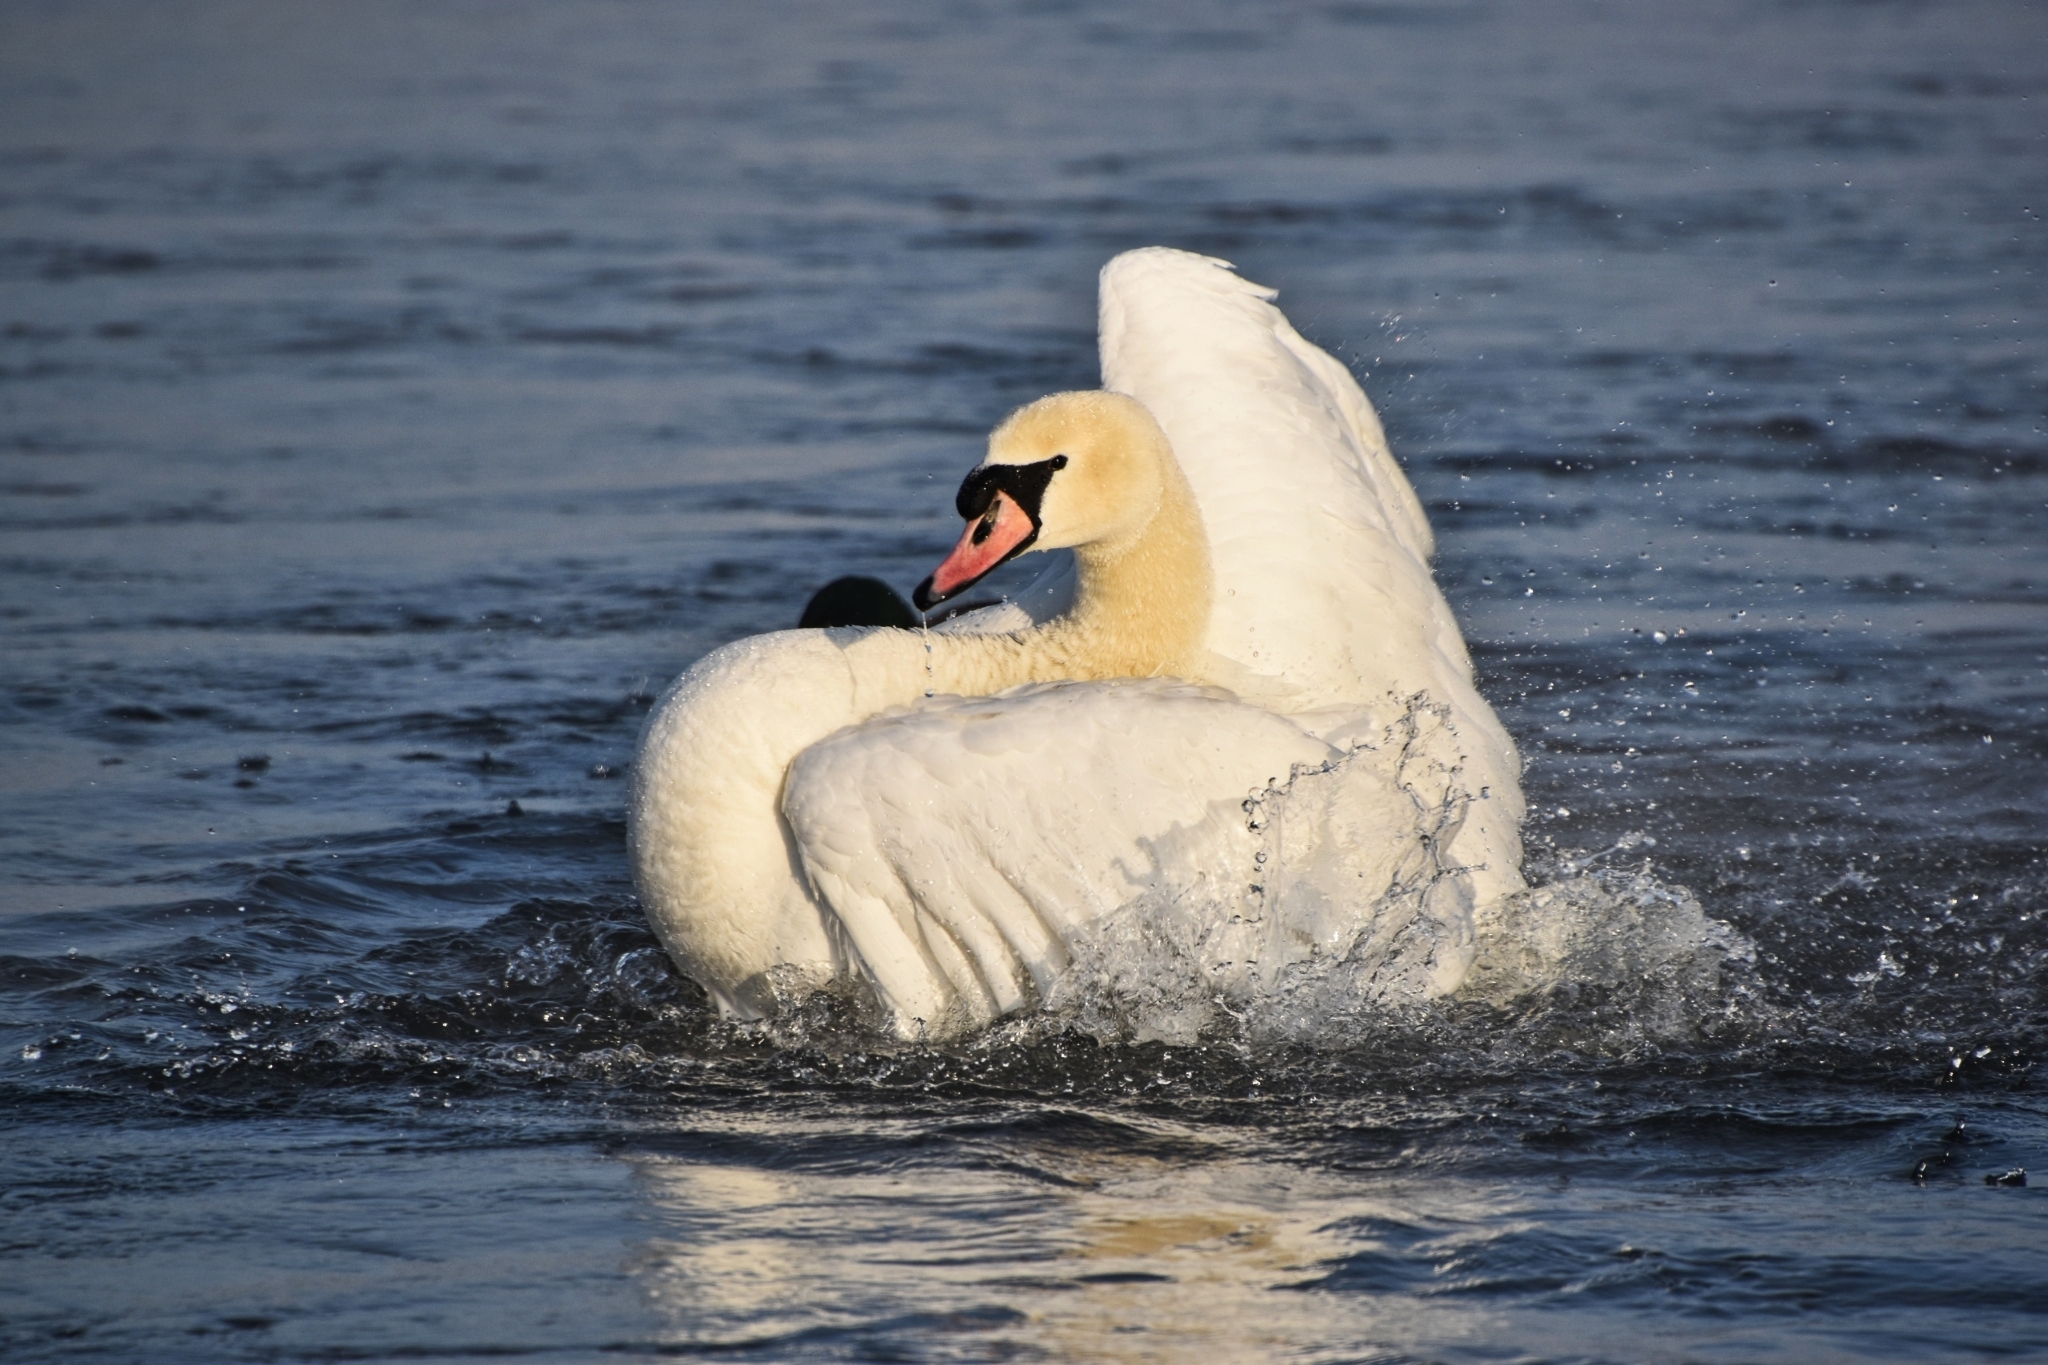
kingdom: Animalia
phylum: Chordata
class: Aves
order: Anseriformes
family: Anatidae
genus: Cygnus
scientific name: Cygnus olor
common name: Mute swan
